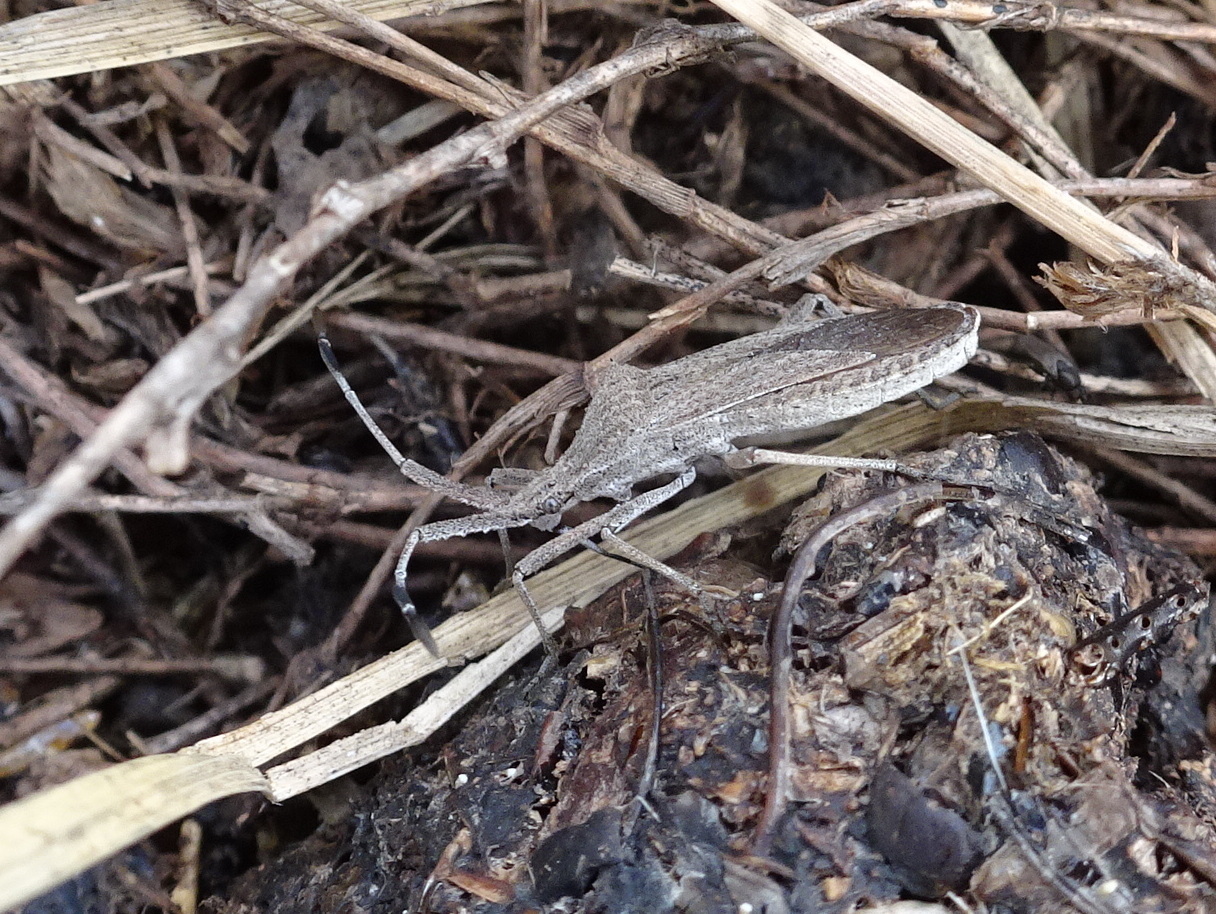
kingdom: Animalia
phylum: Arthropoda
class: Insecta
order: Hemiptera
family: Coreidae
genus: Chariesterus
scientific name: Chariesterus antennator
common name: Flat horned coreid
